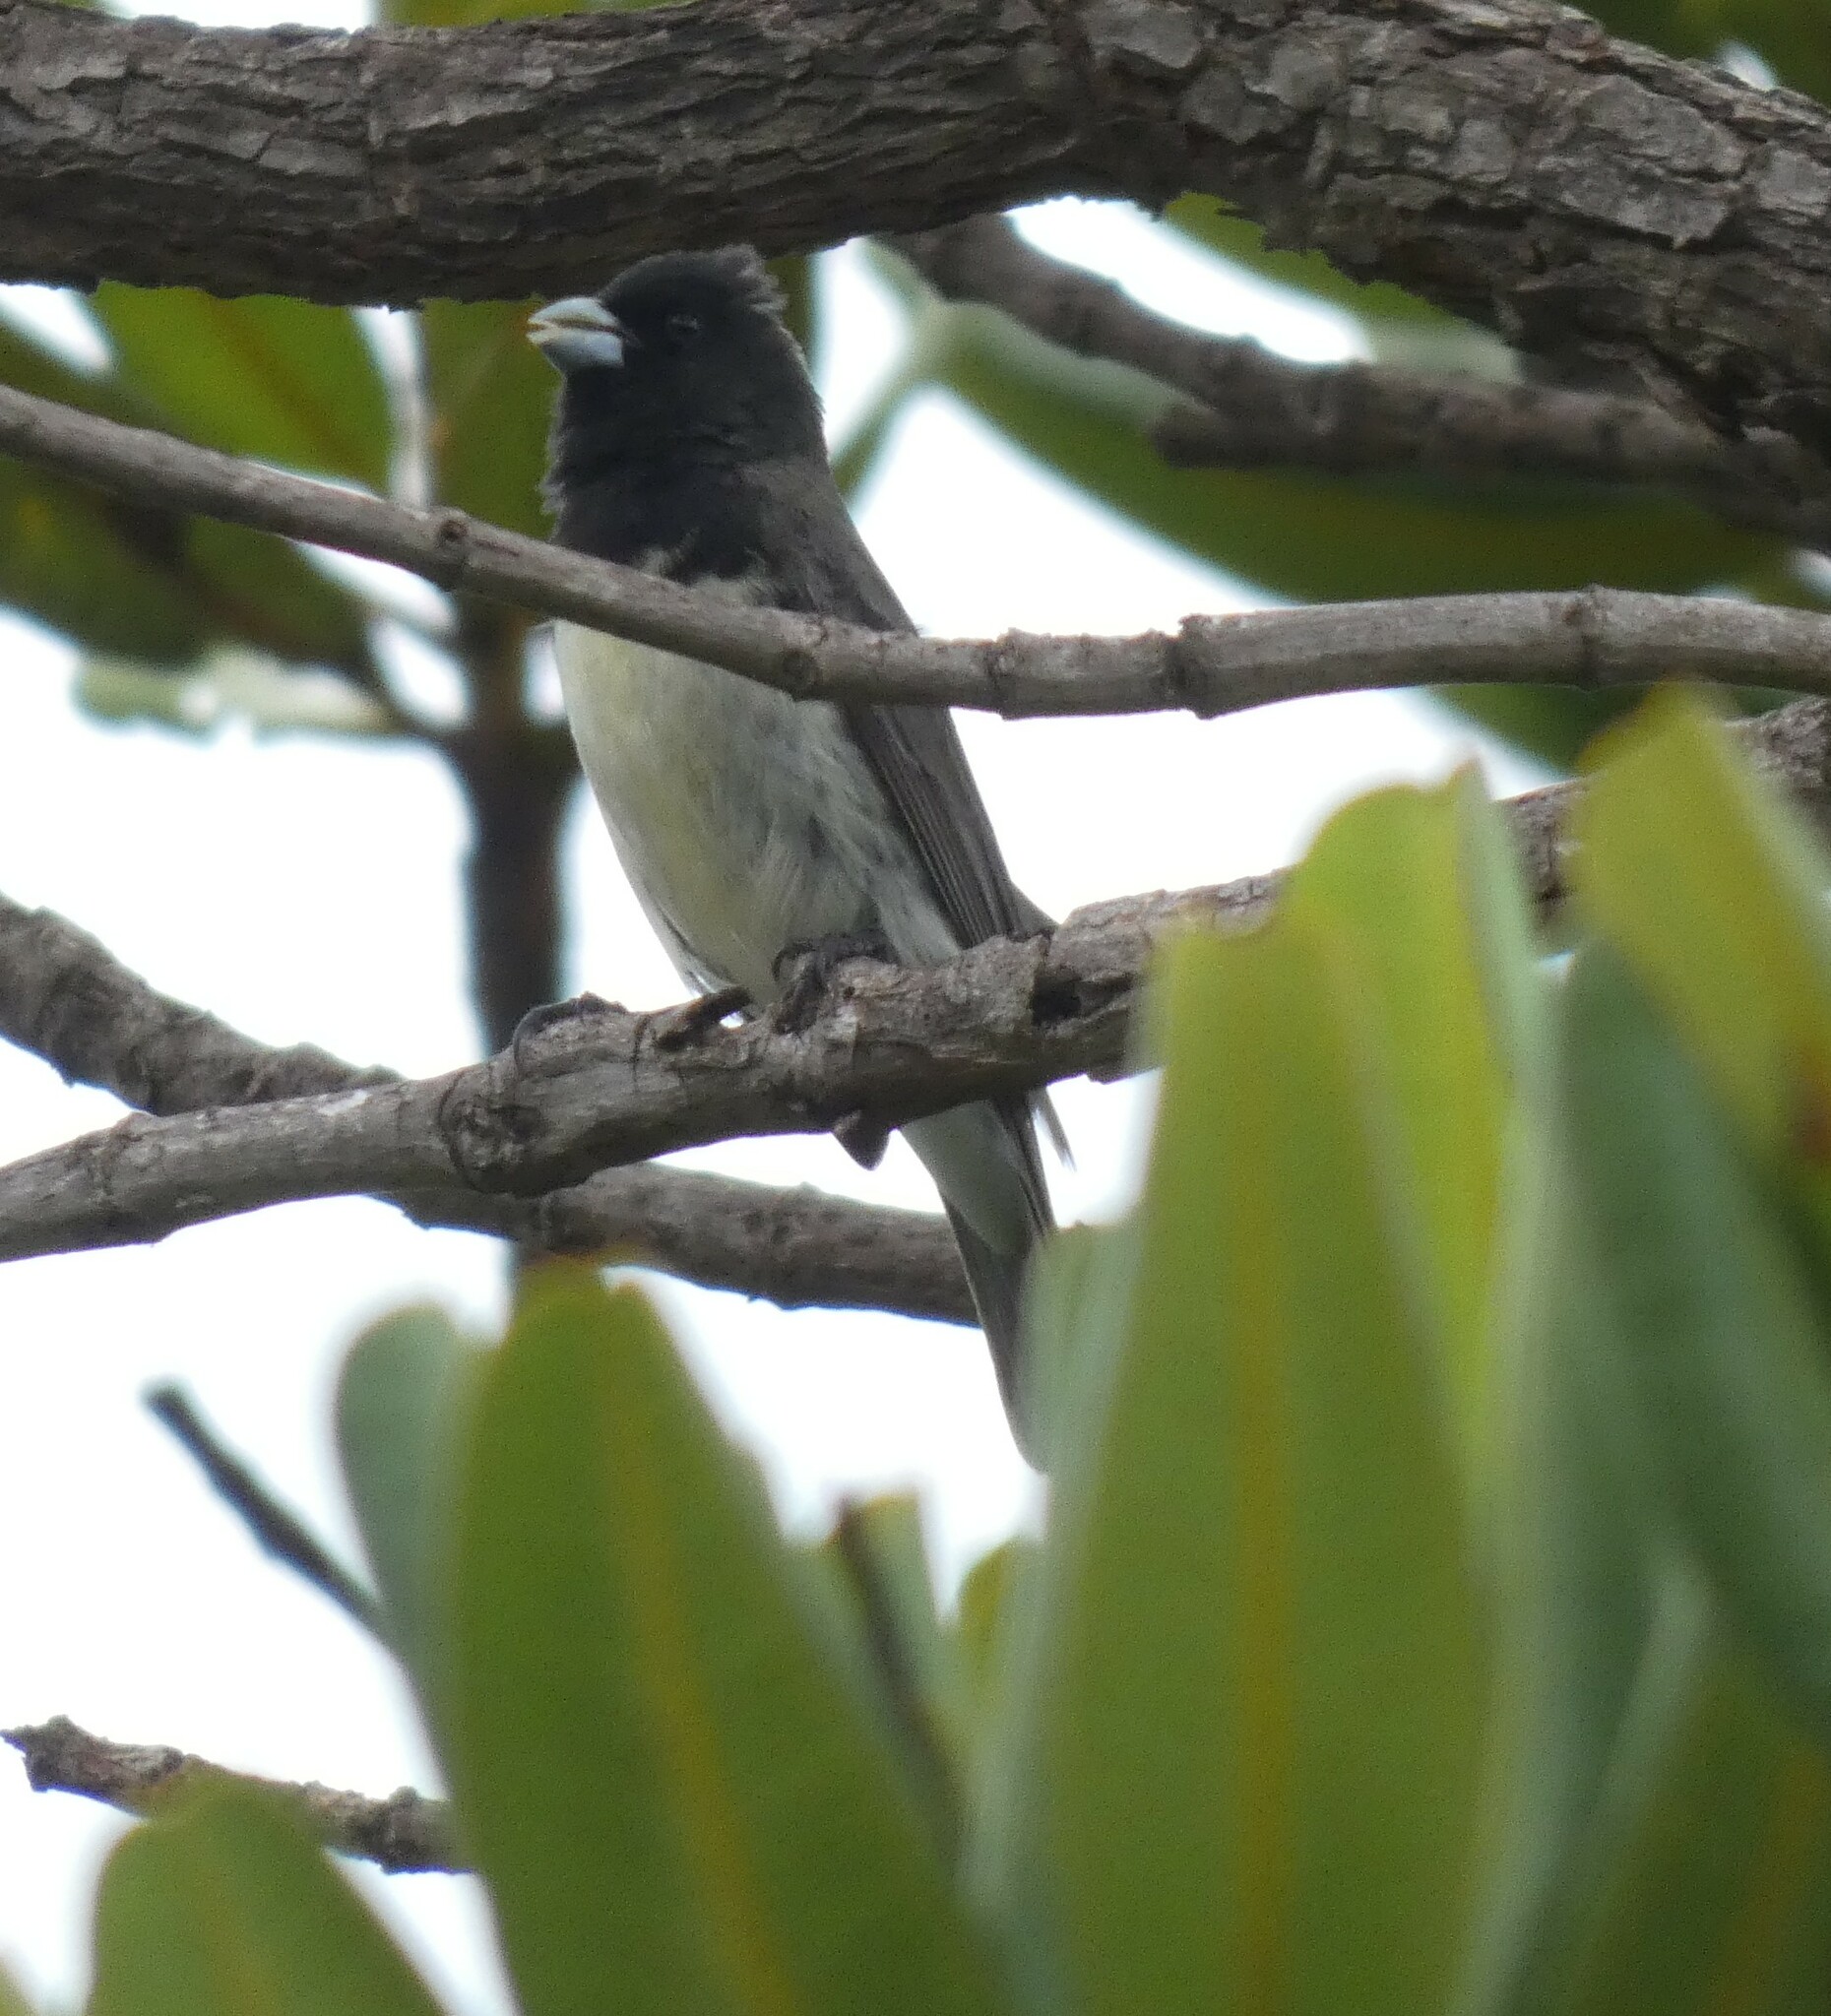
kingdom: Animalia
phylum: Chordata
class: Aves
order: Passeriformes
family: Thraupidae
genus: Sporophila
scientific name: Sporophila nigricollis
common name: Yellow-bellied seedeater
